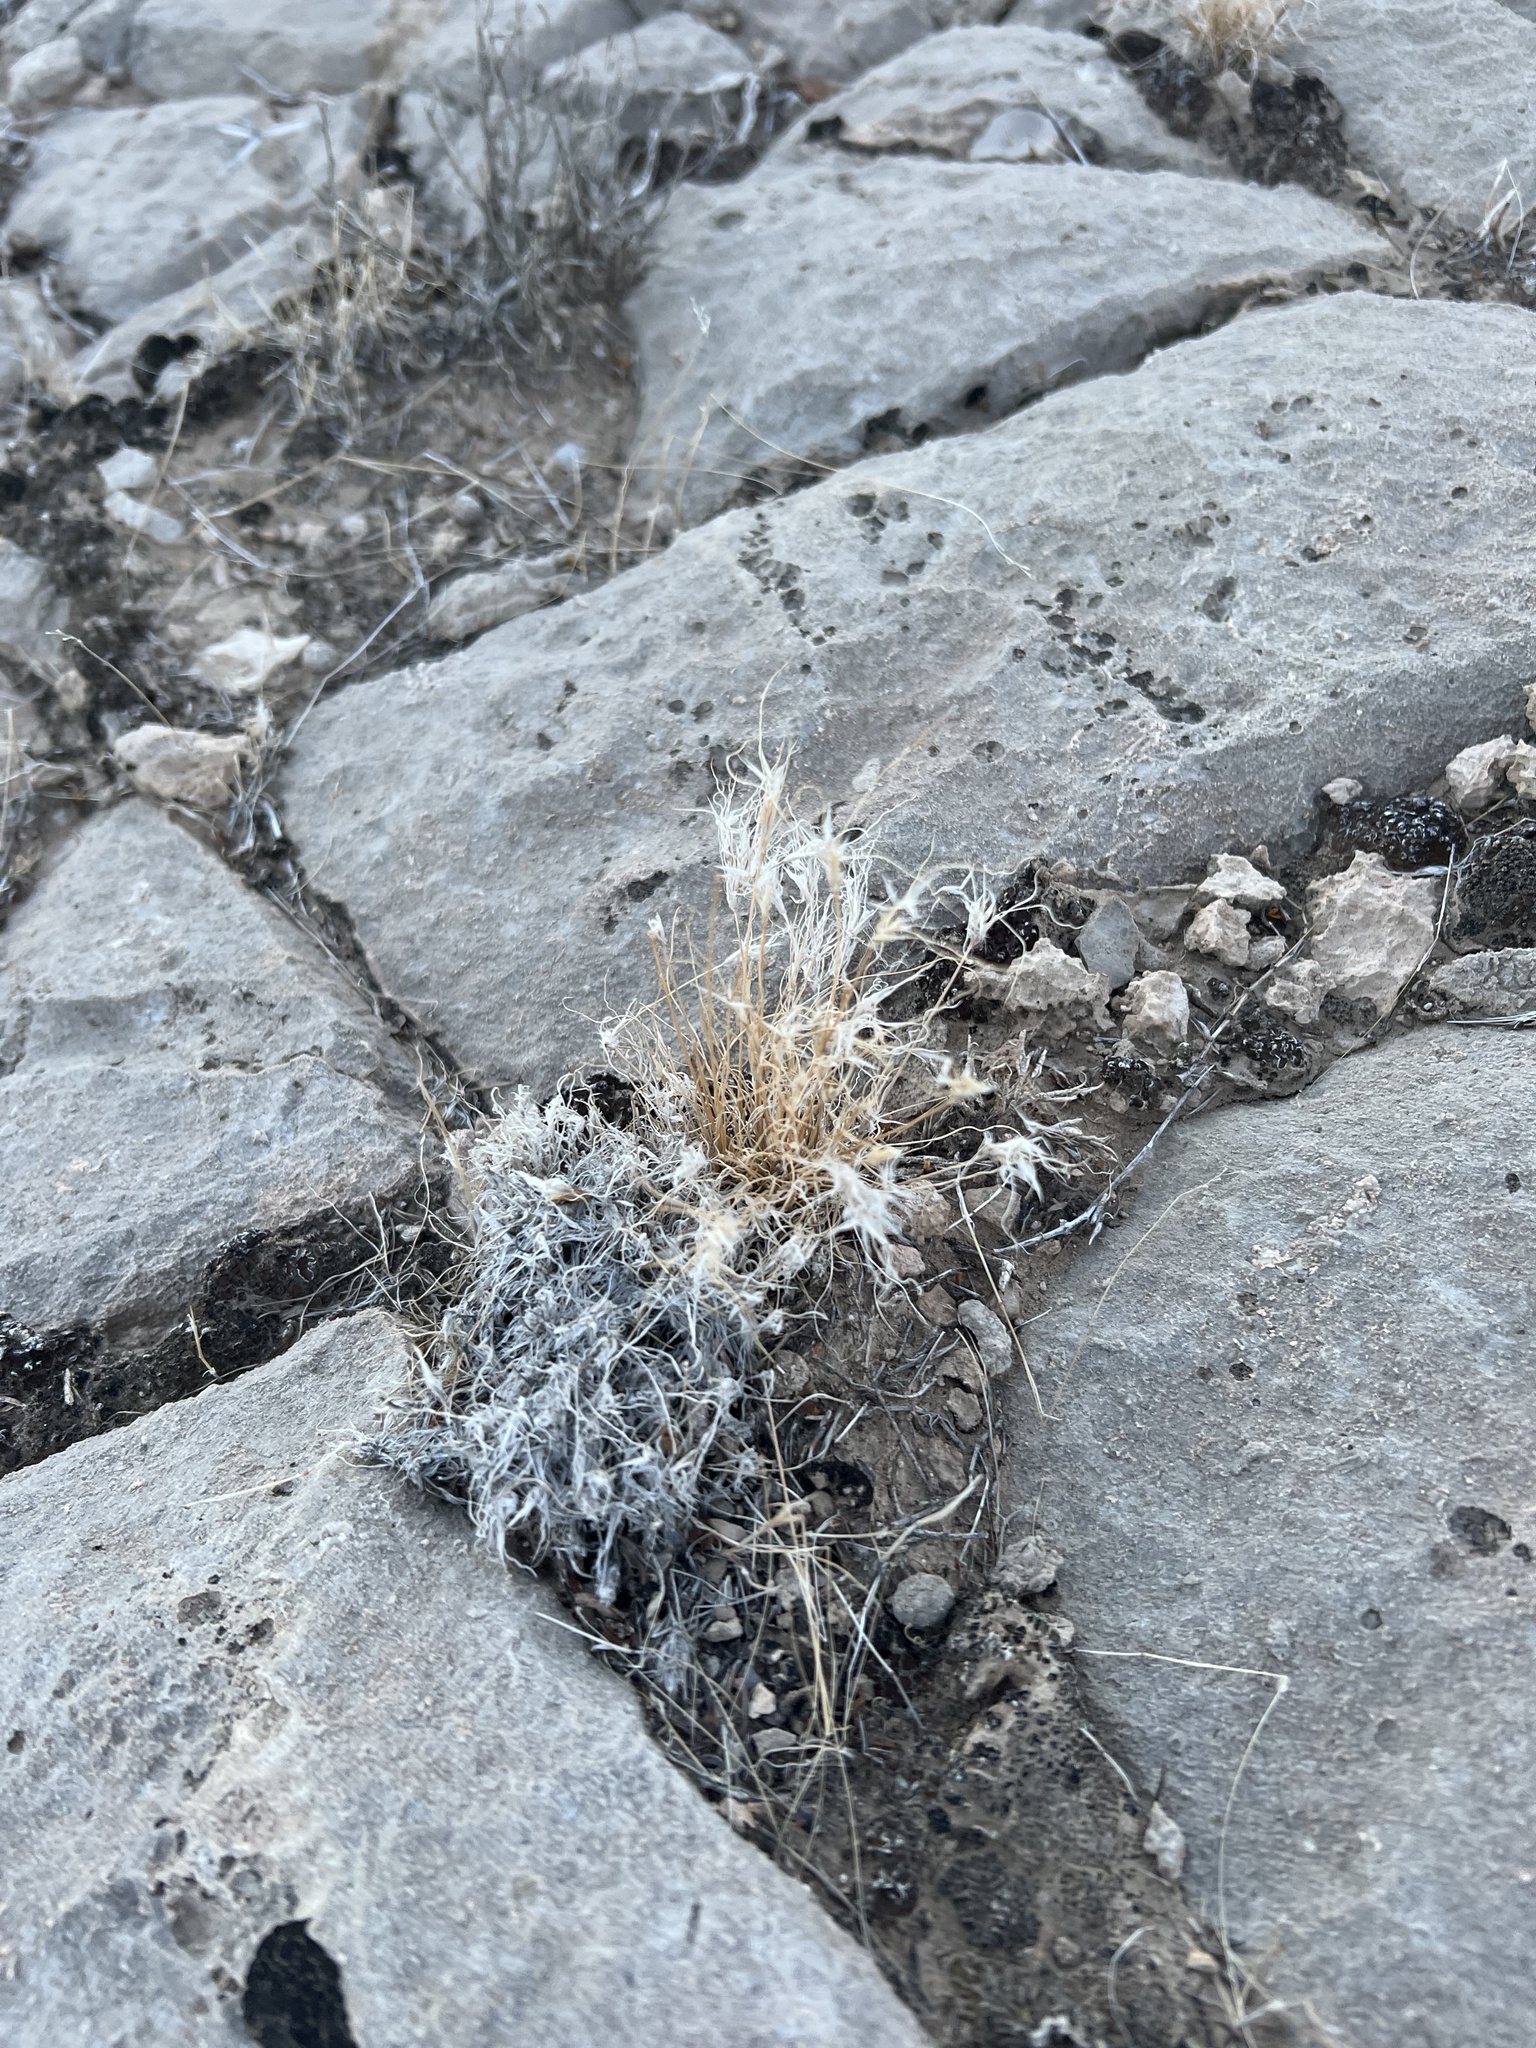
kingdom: Plantae
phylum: Tracheophyta
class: Liliopsida
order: Poales
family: Poaceae
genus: Dasyochloa
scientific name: Dasyochloa pulchella
